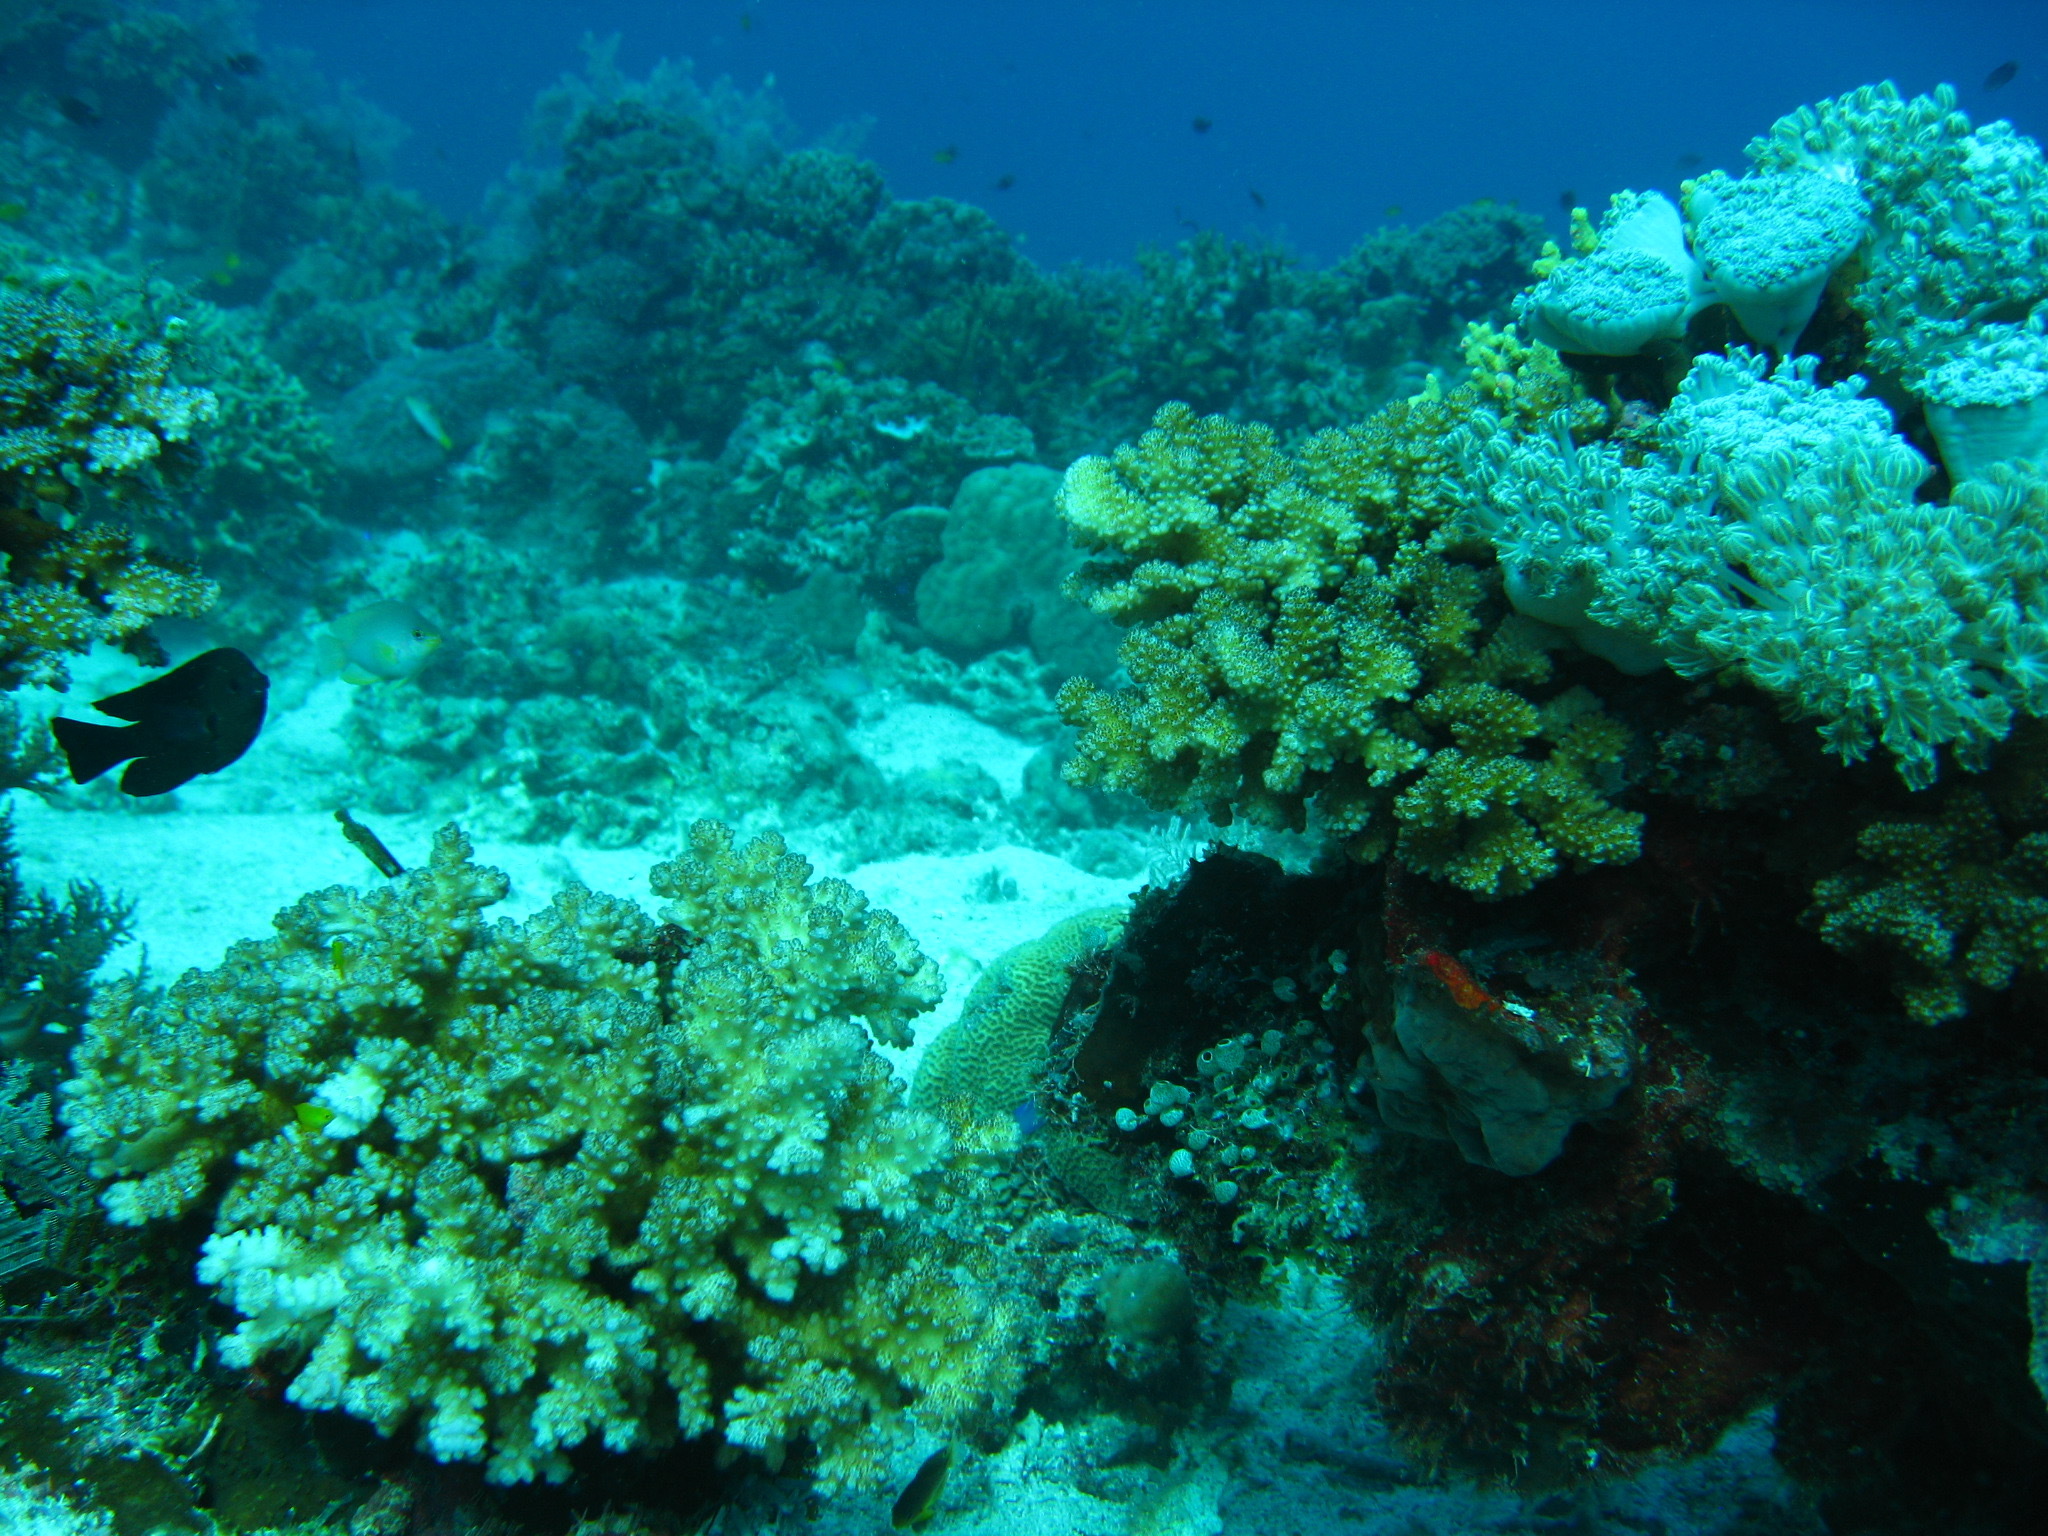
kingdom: Animalia
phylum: Cnidaria
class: Anthozoa
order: Scleractinia
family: Pocilloporidae
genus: Pocillopora
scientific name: Pocillopora verrucosa
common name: Cauliflower coral
